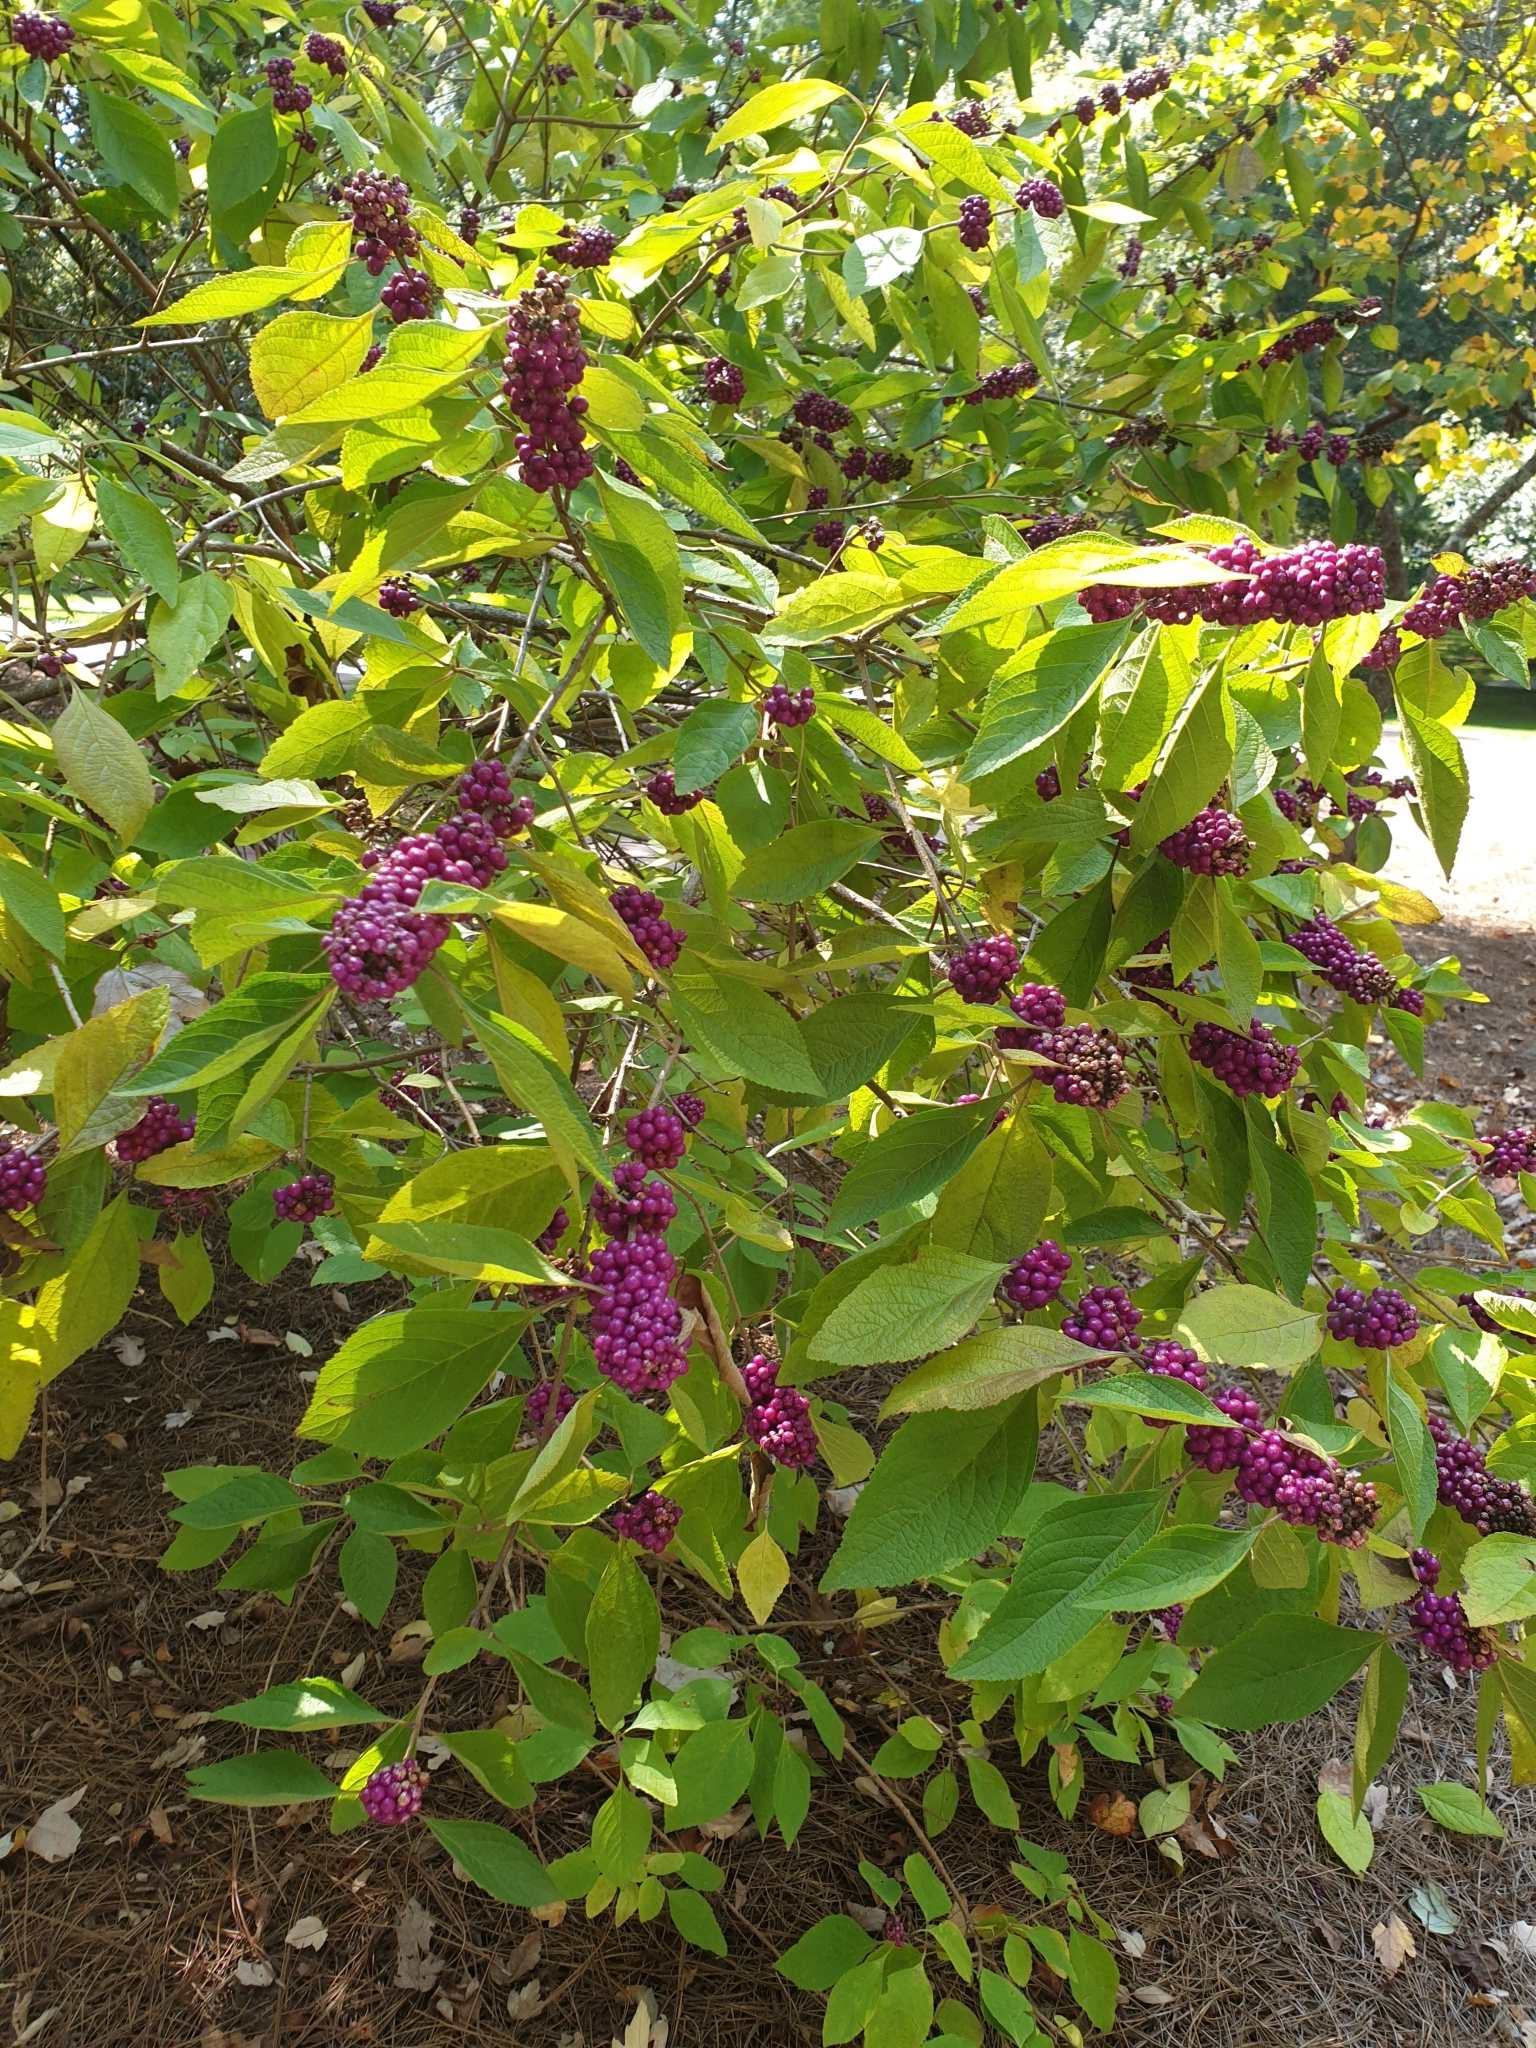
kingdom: Plantae
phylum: Tracheophyta
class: Magnoliopsida
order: Lamiales
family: Lamiaceae
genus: Callicarpa
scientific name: Callicarpa americana
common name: American beautyberry
